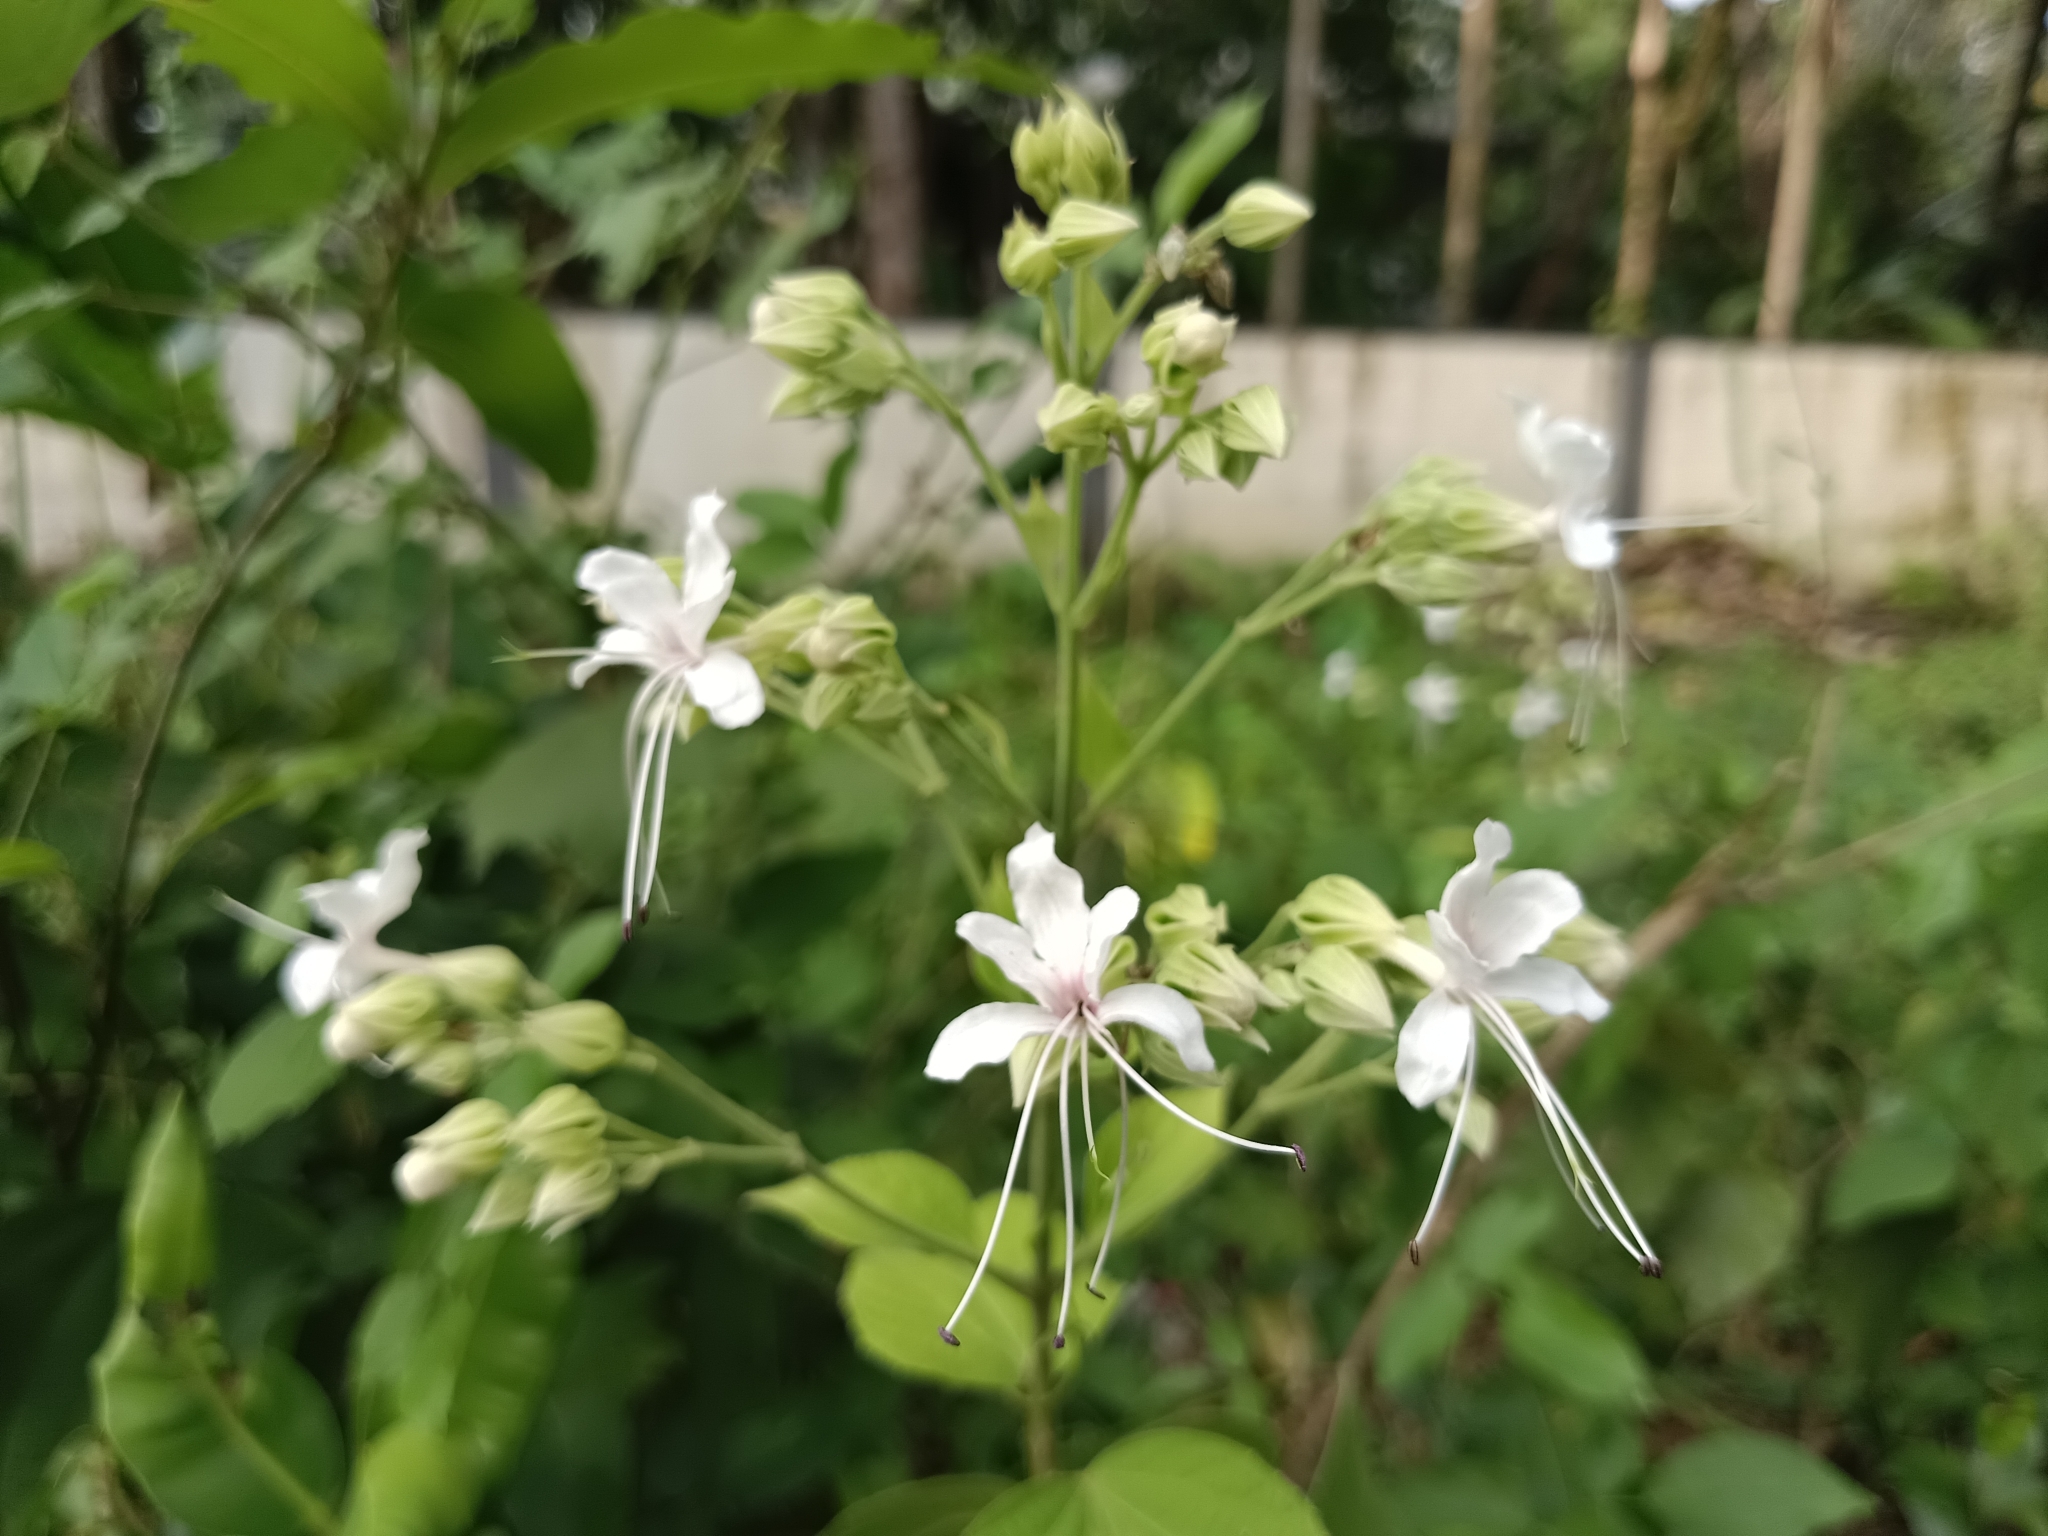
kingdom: Plantae
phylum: Tracheophyta
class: Magnoliopsida
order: Lamiales
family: Lamiaceae
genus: Clerodendrum
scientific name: Clerodendrum infortunatum
